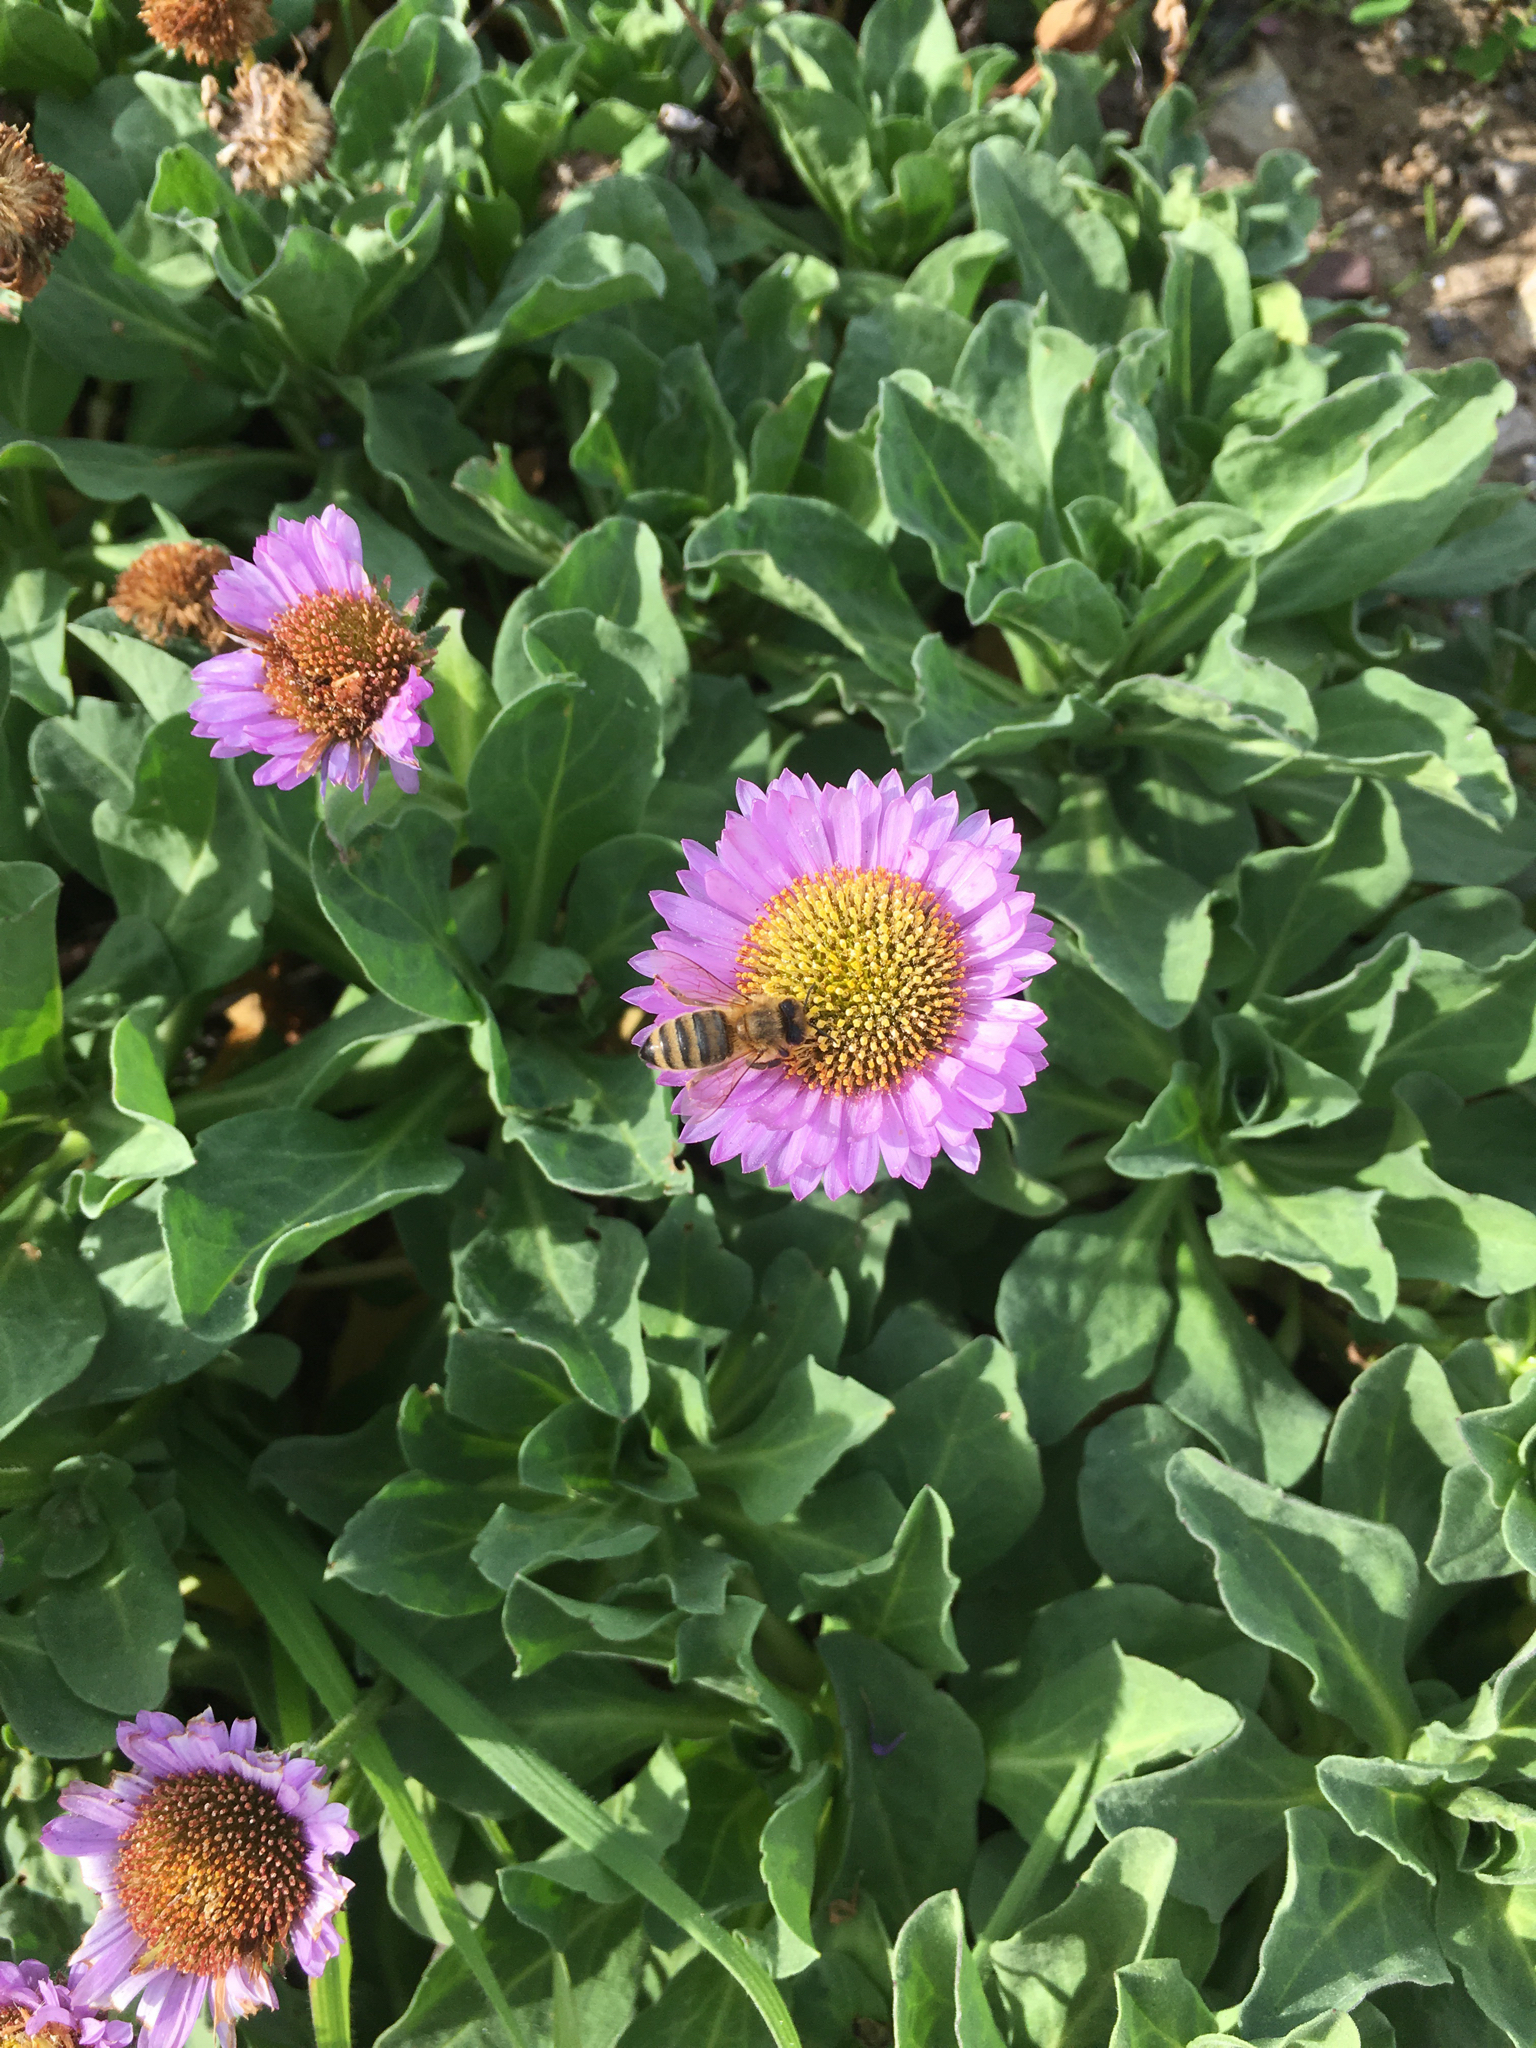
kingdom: Animalia
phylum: Arthropoda
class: Insecta
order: Hymenoptera
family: Apidae
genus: Apis
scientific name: Apis mellifera
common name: Honey bee
